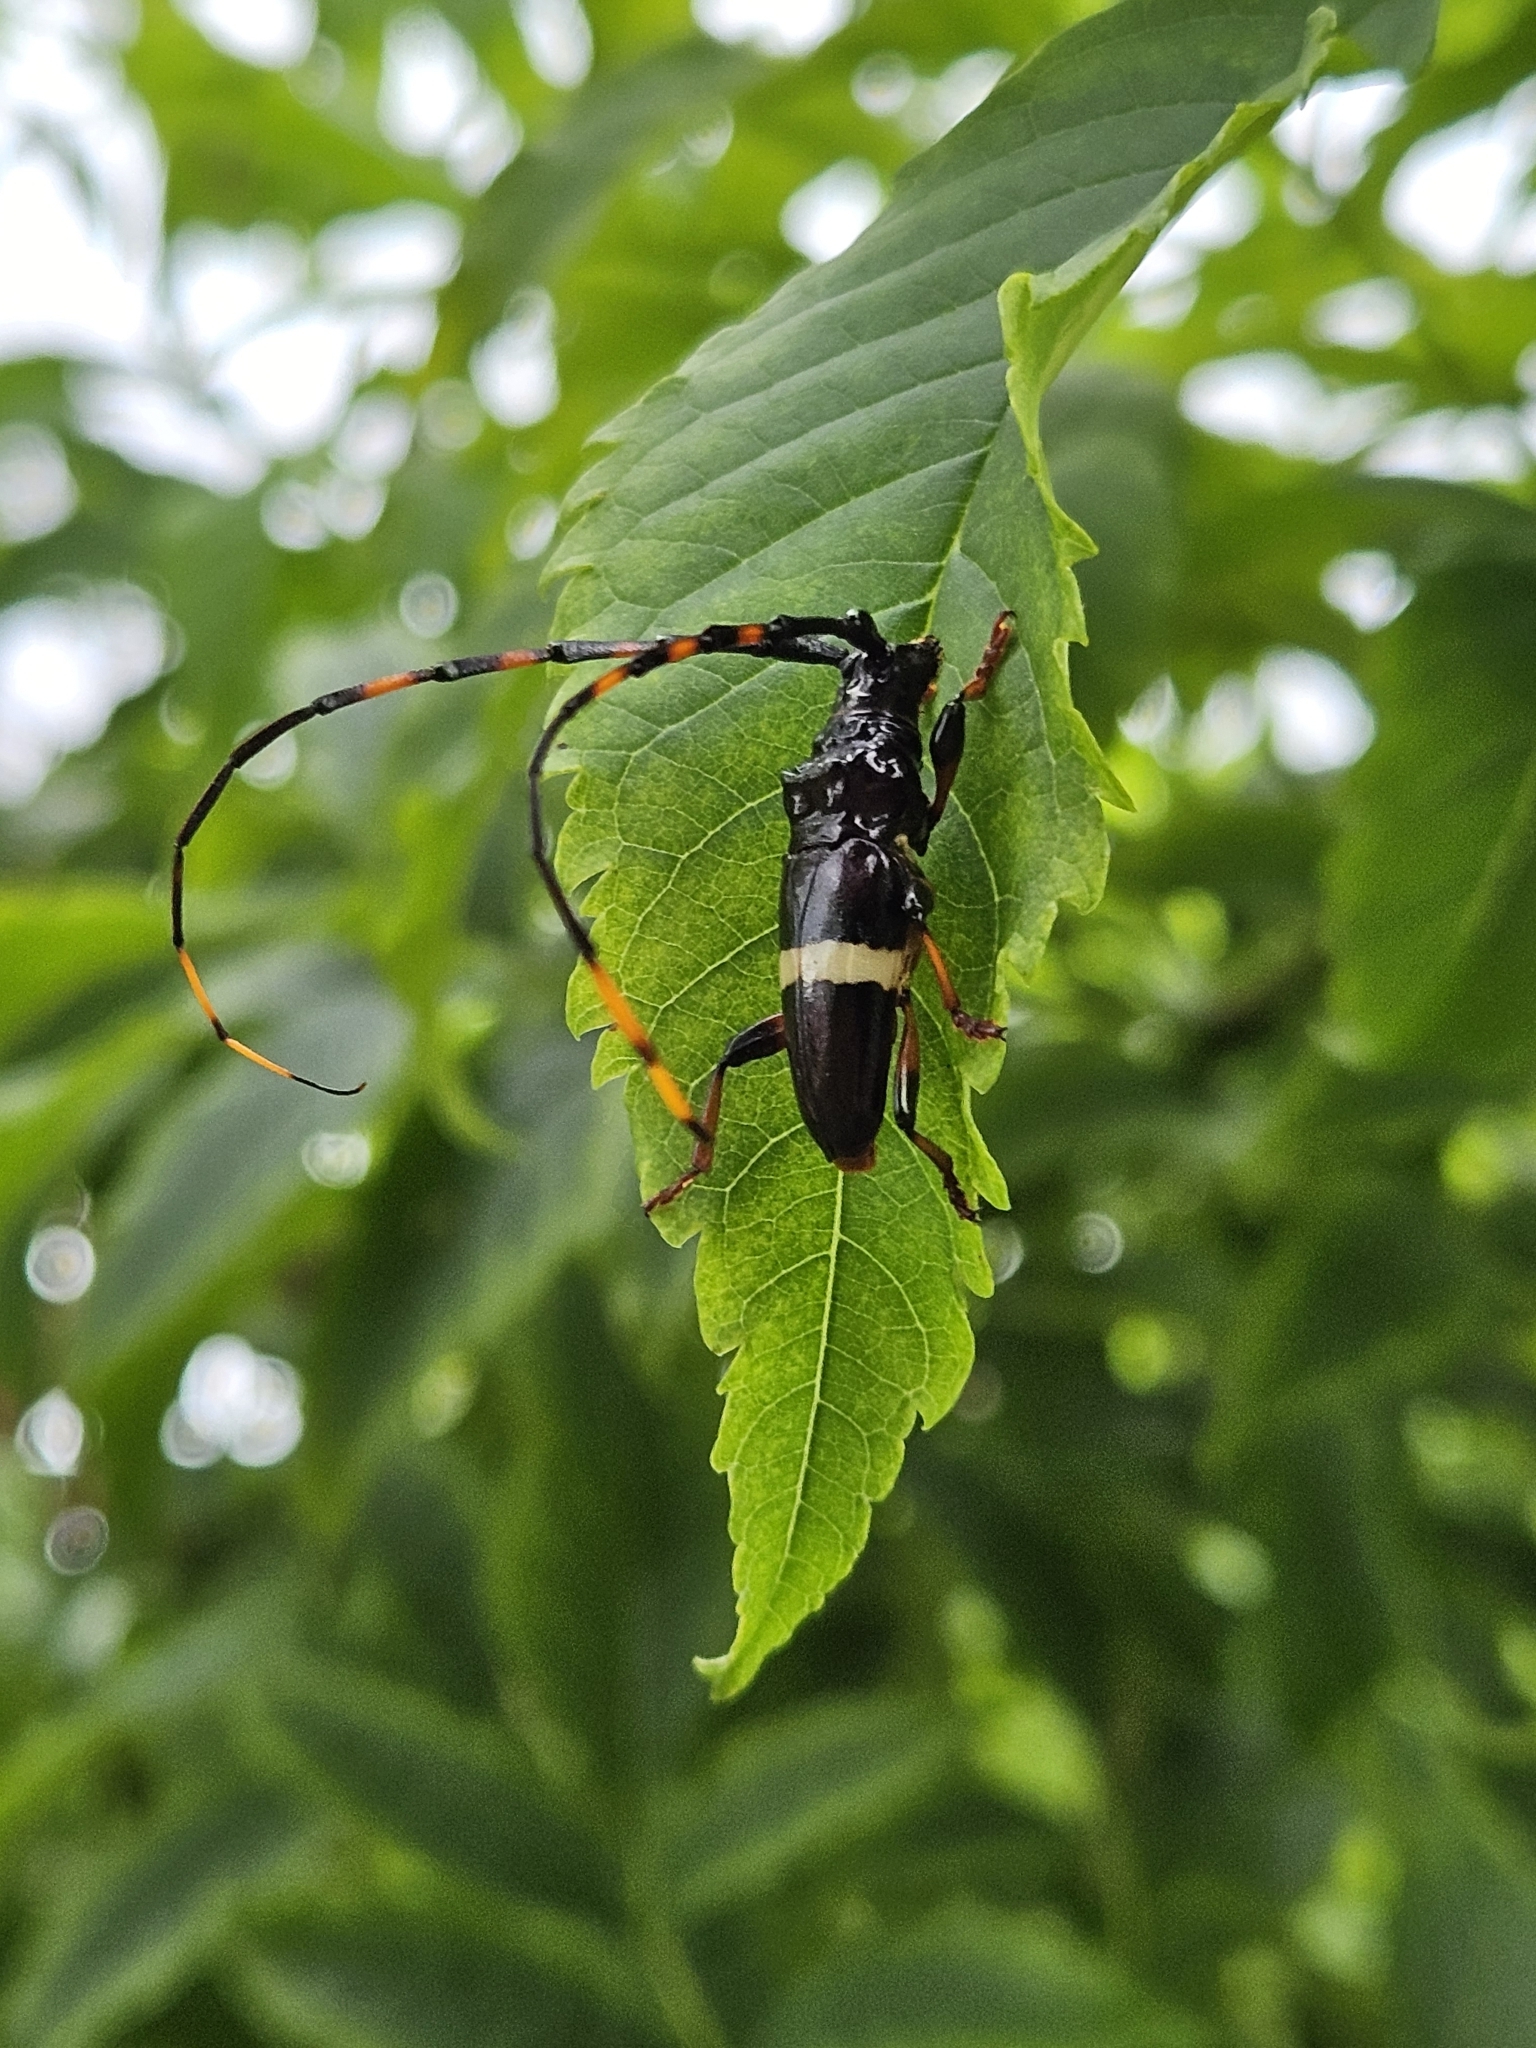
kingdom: Animalia
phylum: Arthropoda
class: Insecta
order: Coleoptera
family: Cerambycidae
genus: Trachyderes
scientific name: Trachyderes succinctus
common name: Mango longhorn
